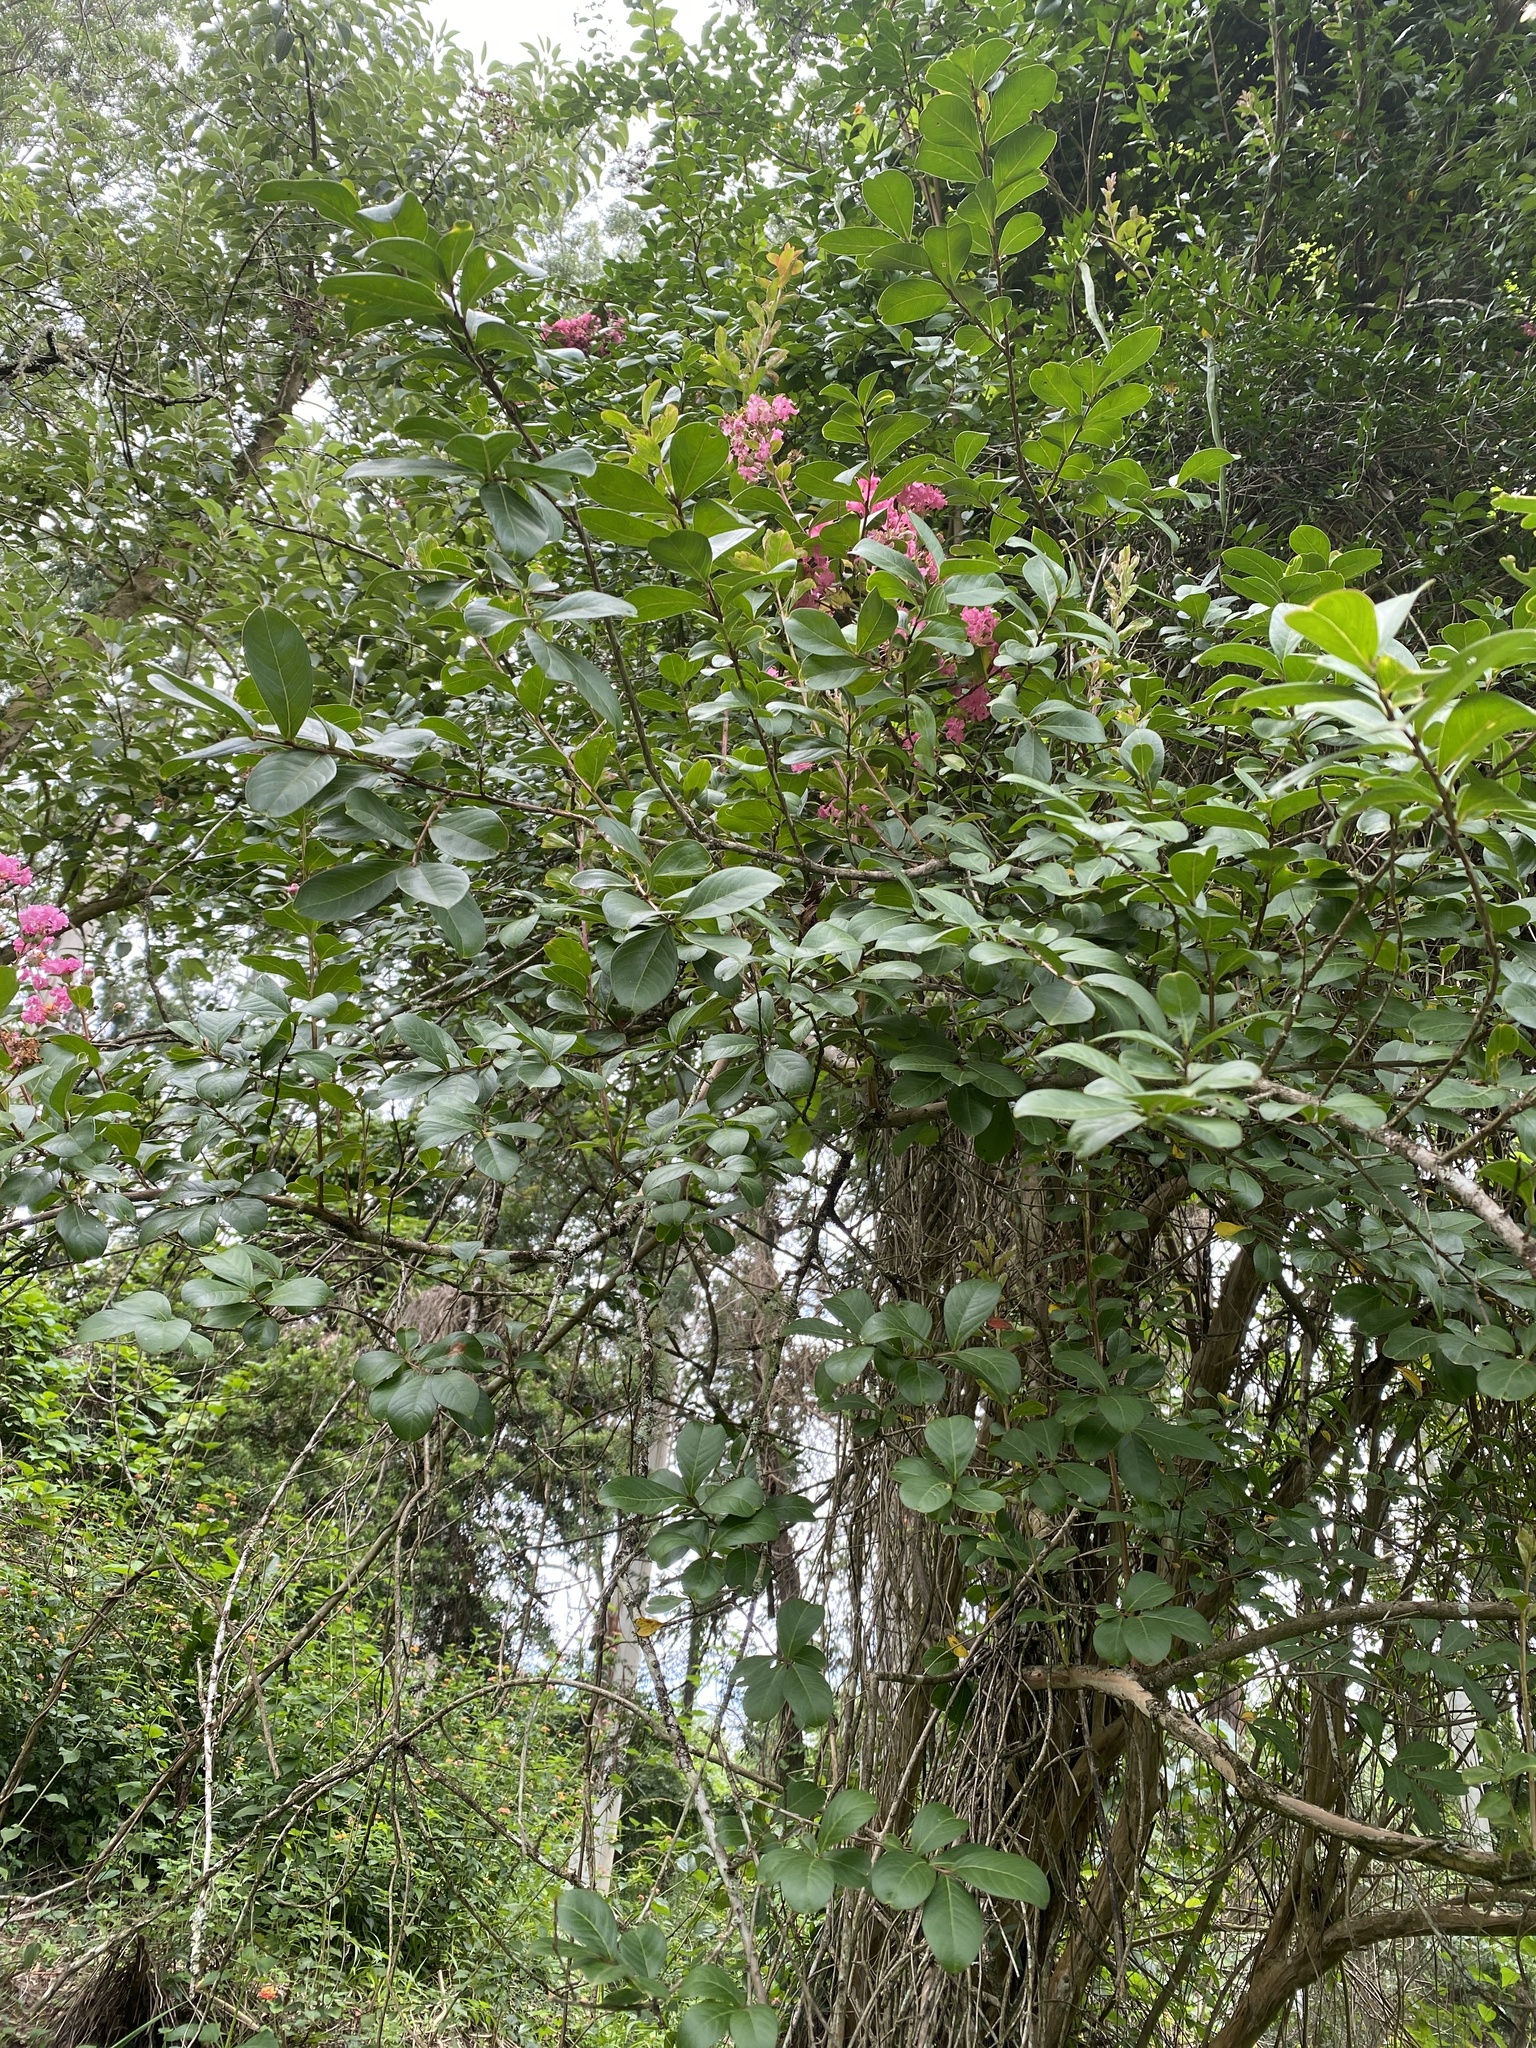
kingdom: Plantae
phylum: Tracheophyta
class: Magnoliopsida
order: Myrtales
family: Lythraceae
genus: Lagerstroemia
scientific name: Lagerstroemia indica
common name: Crape-myrtle
